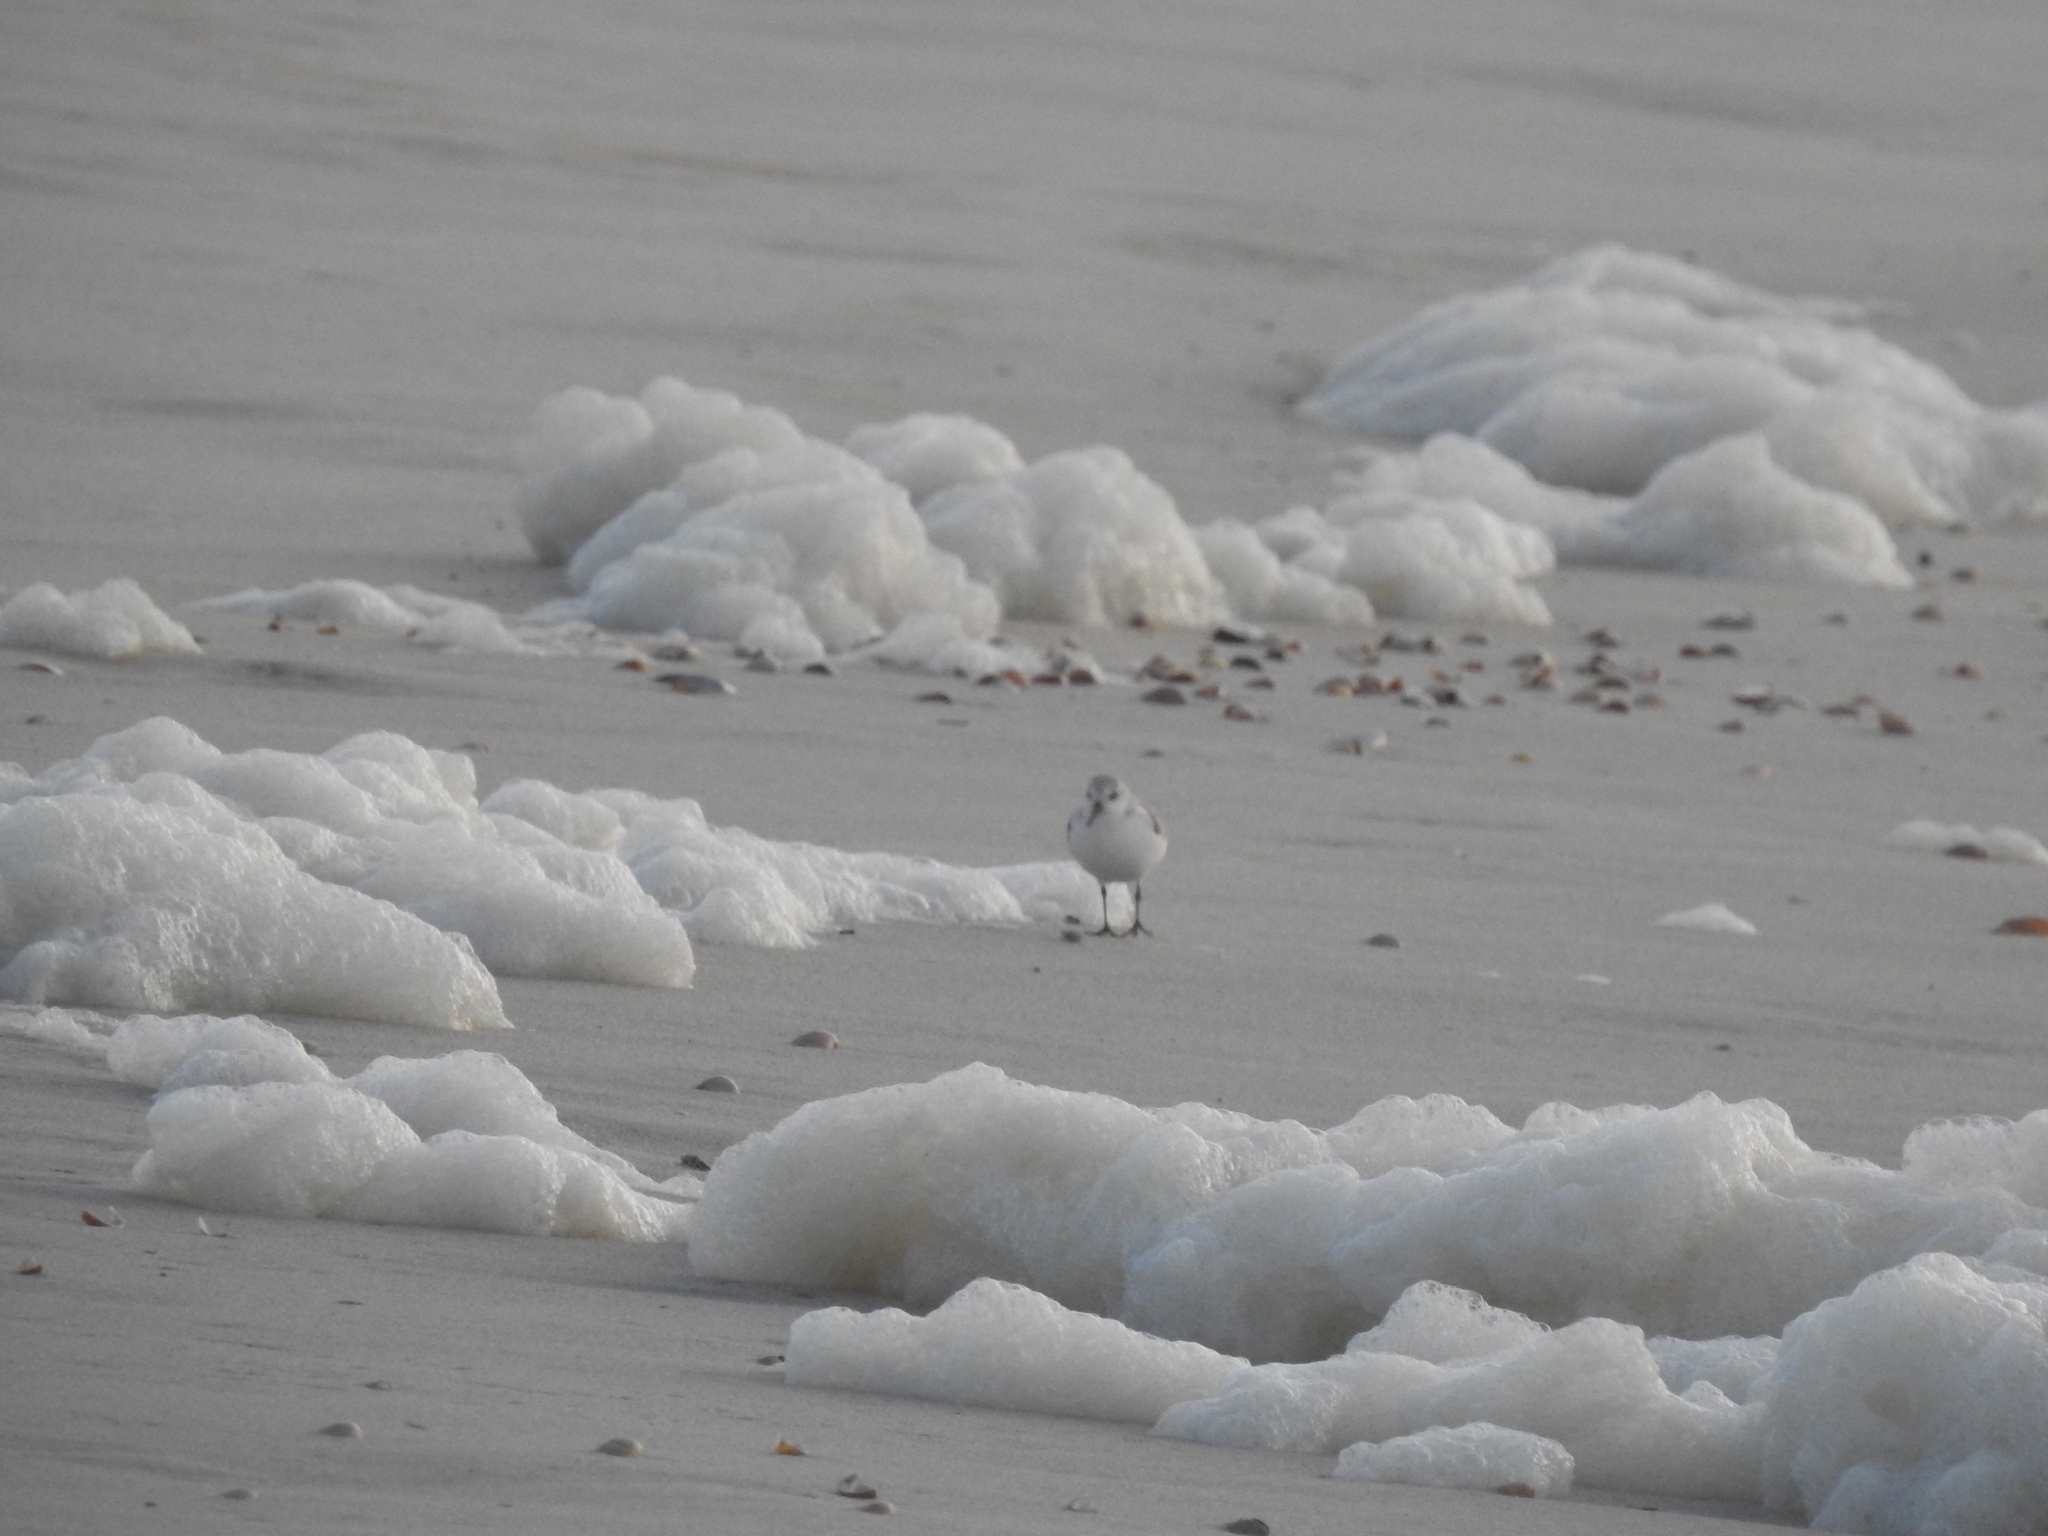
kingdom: Animalia
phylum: Chordata
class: Aves
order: Charadriiformes
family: Scolopacidae
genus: Calidris
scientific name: Calidris alba
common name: Sanderling
